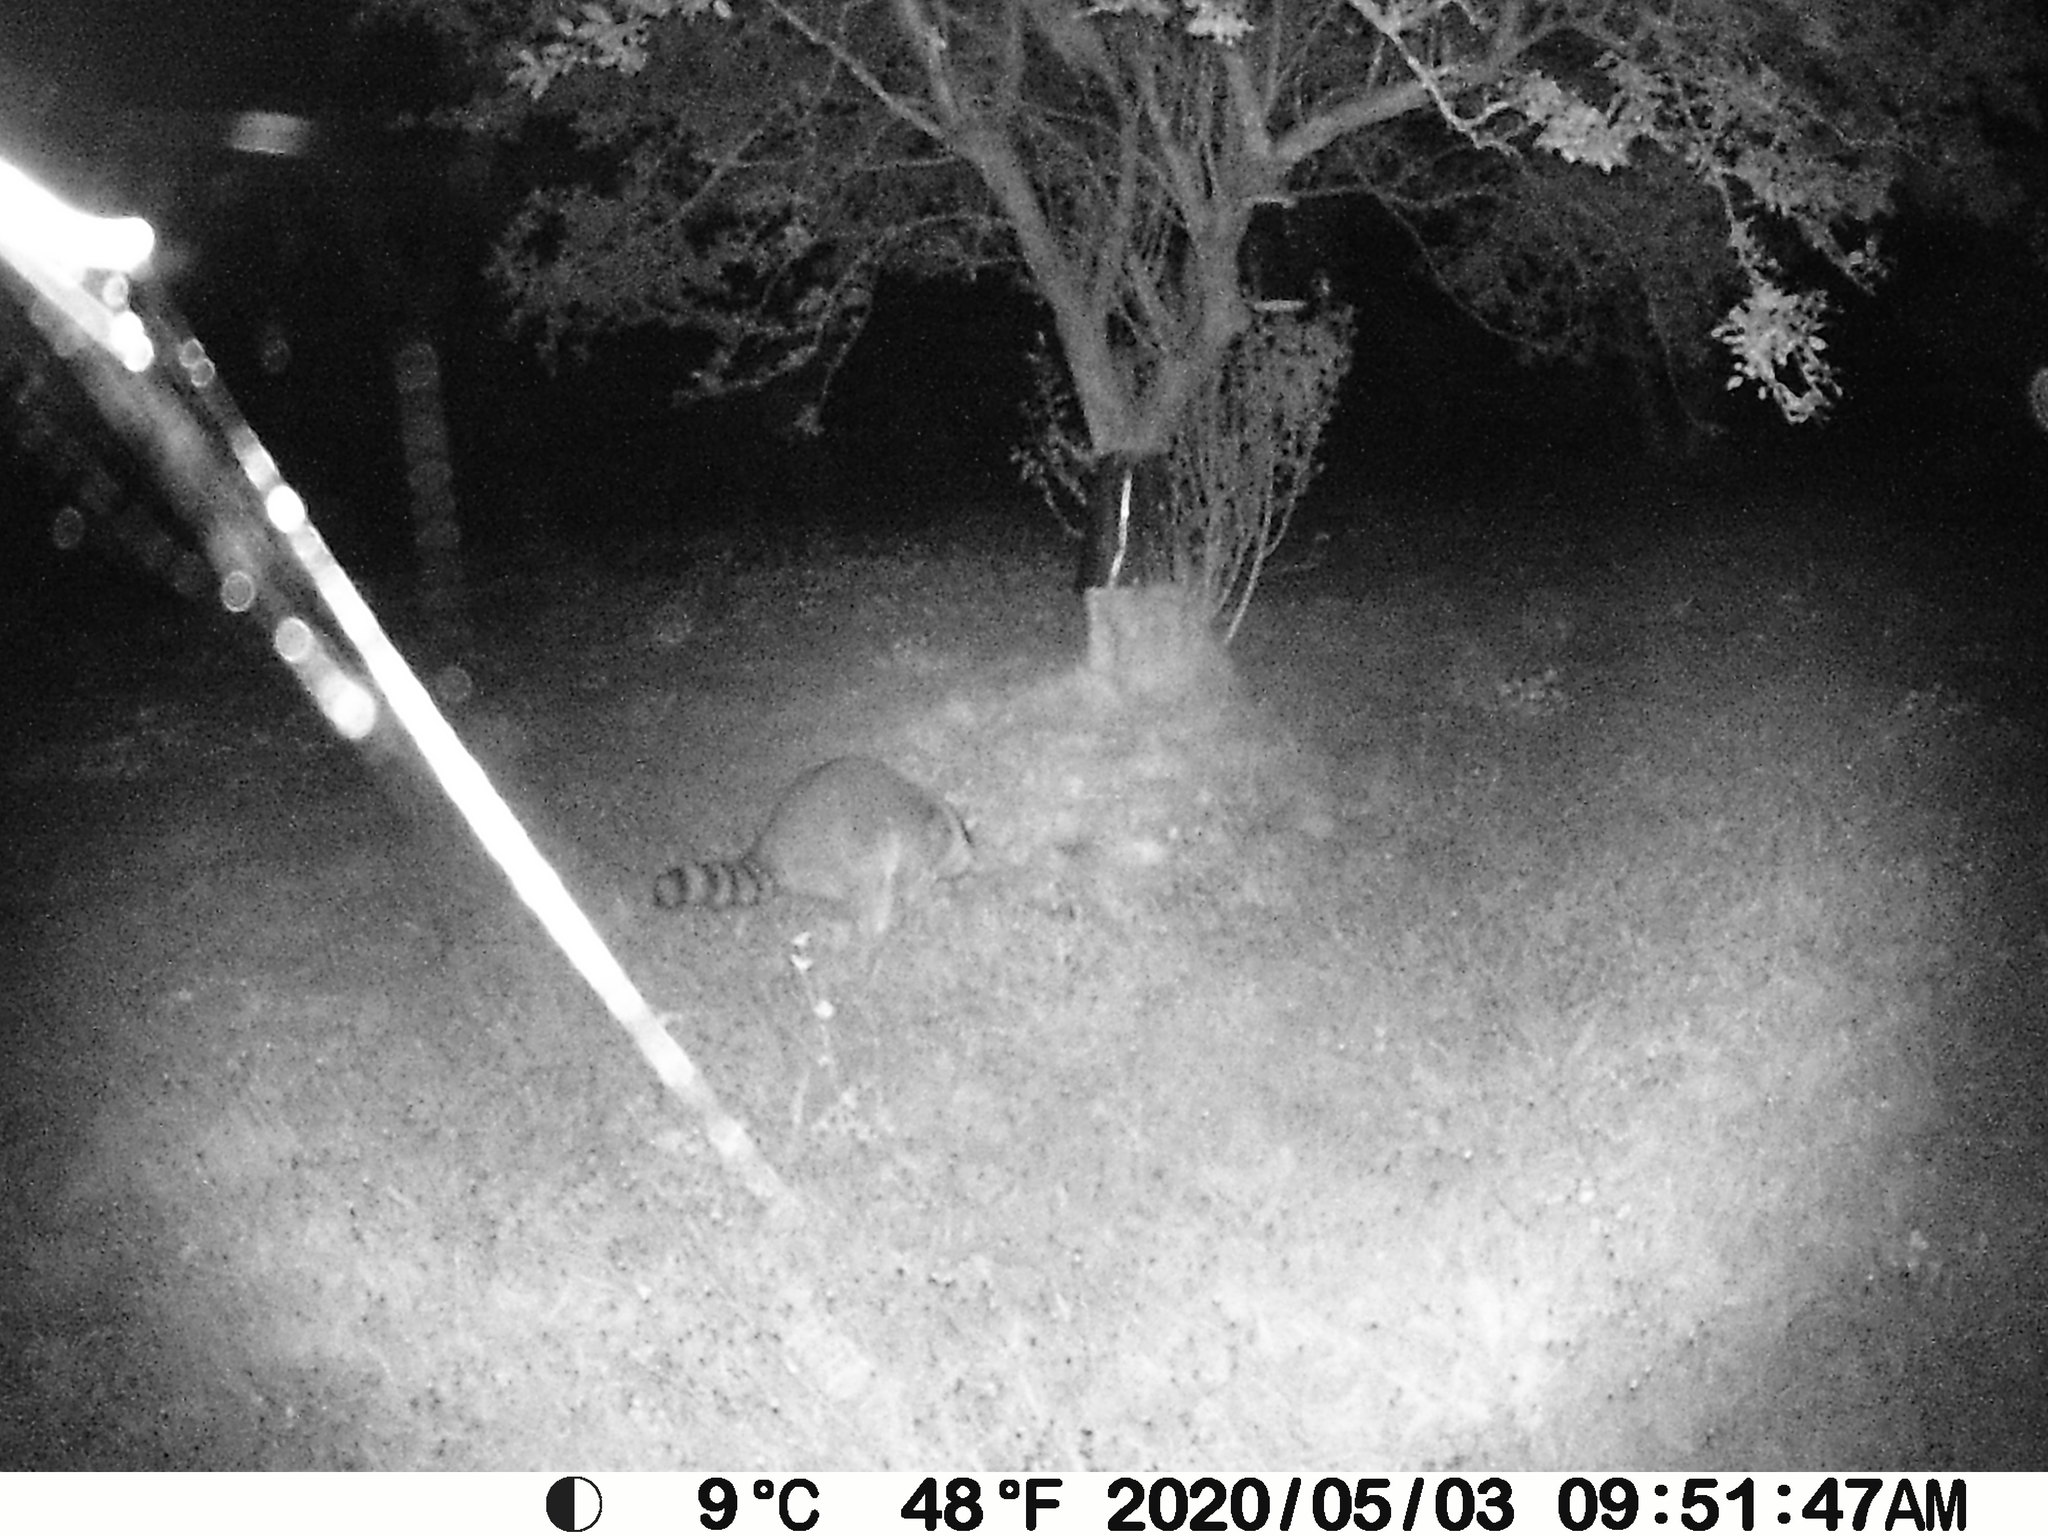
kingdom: Animalia
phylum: Chordata
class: Mammalia
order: Carnivora
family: Procyonidae
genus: Procyon
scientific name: Procyon lotor
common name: Raccoon
